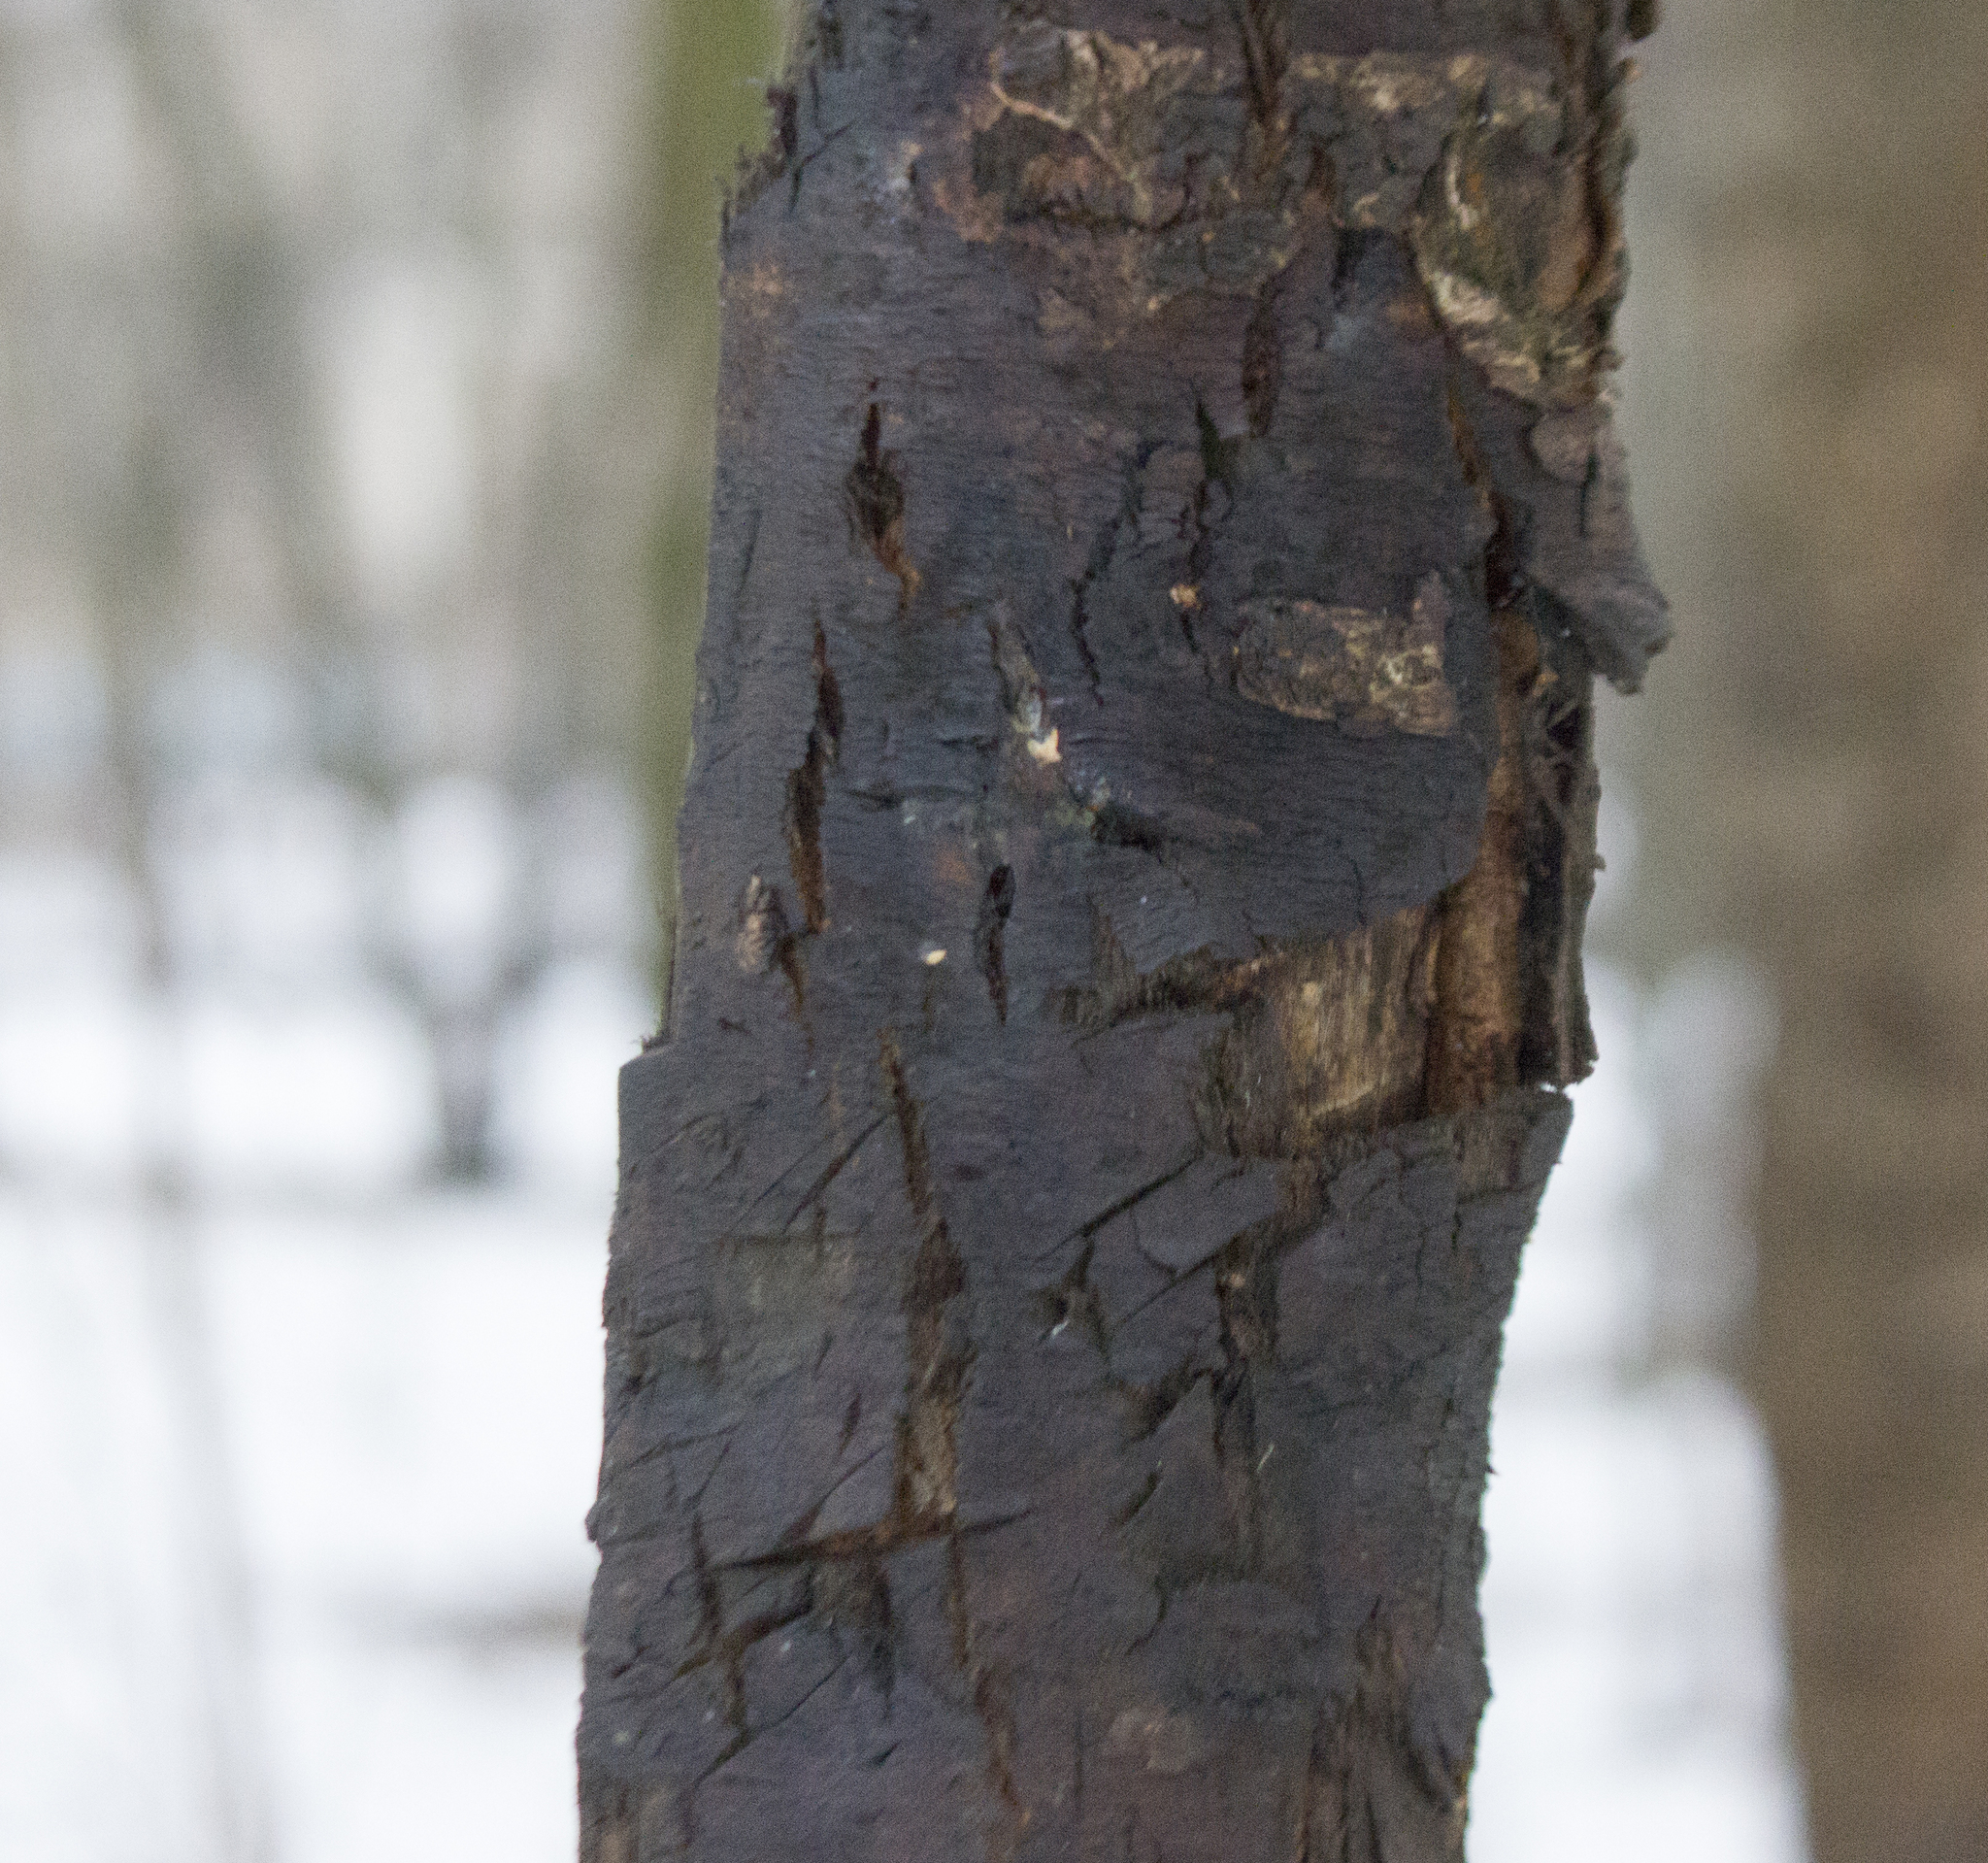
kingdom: Animalia
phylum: Chordata
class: Aves
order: Piciformes
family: Picidae
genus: Dendrocopos
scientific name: Dendrocopos leucotos
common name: White-backed woodpecker
